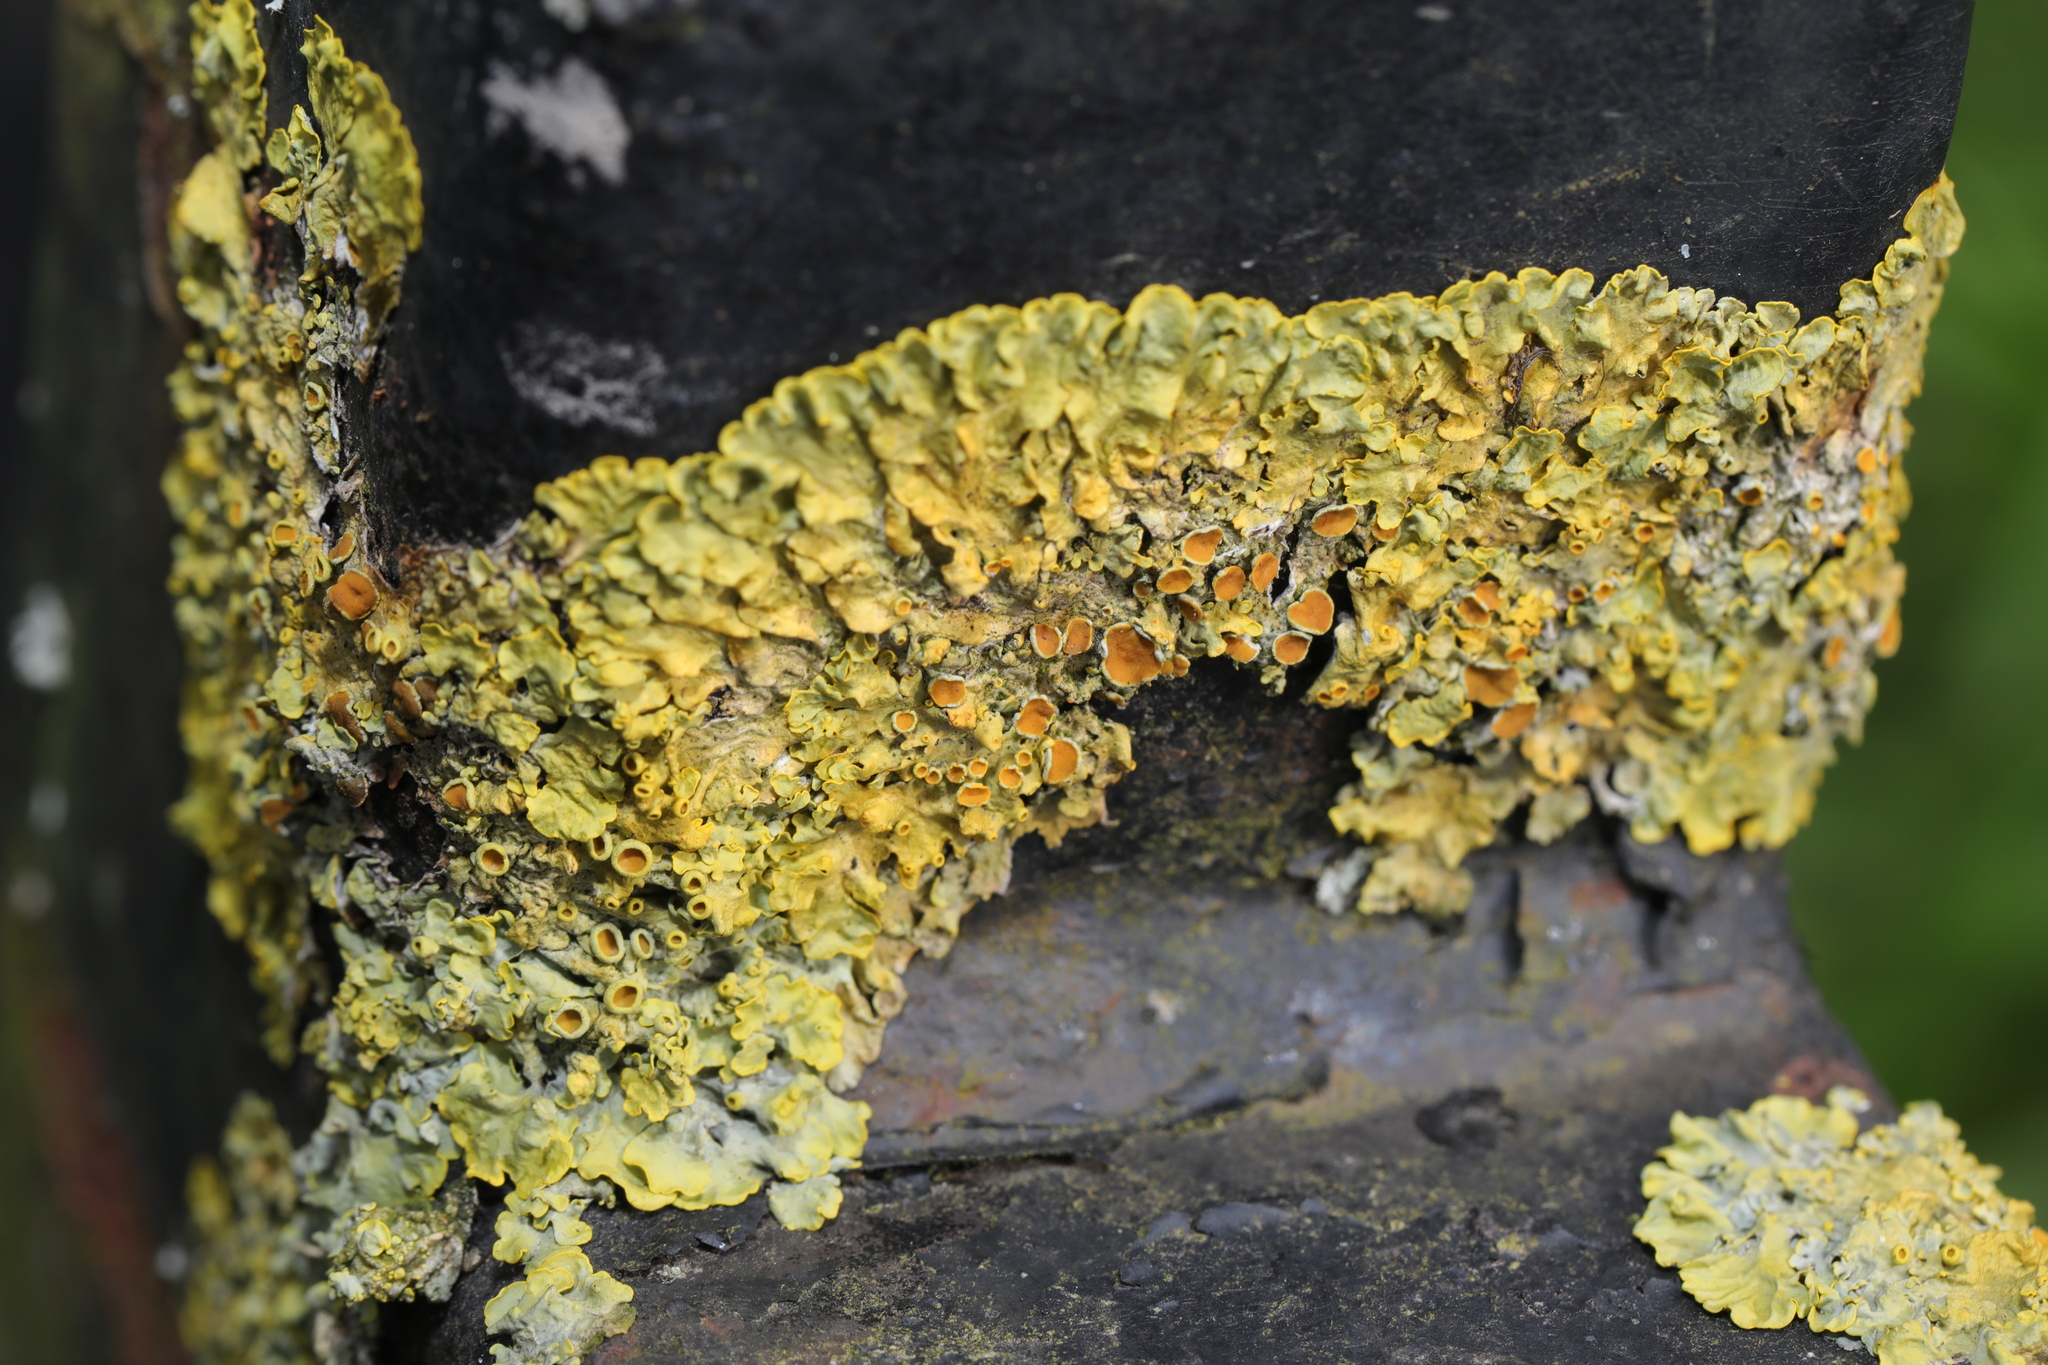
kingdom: Fungi
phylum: Ascomycota
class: Lecanoromycetes
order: Teloschistales
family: Teloschistaceae
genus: Xanthoria
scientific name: Xanthoria parietina
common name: Common orange lichen
